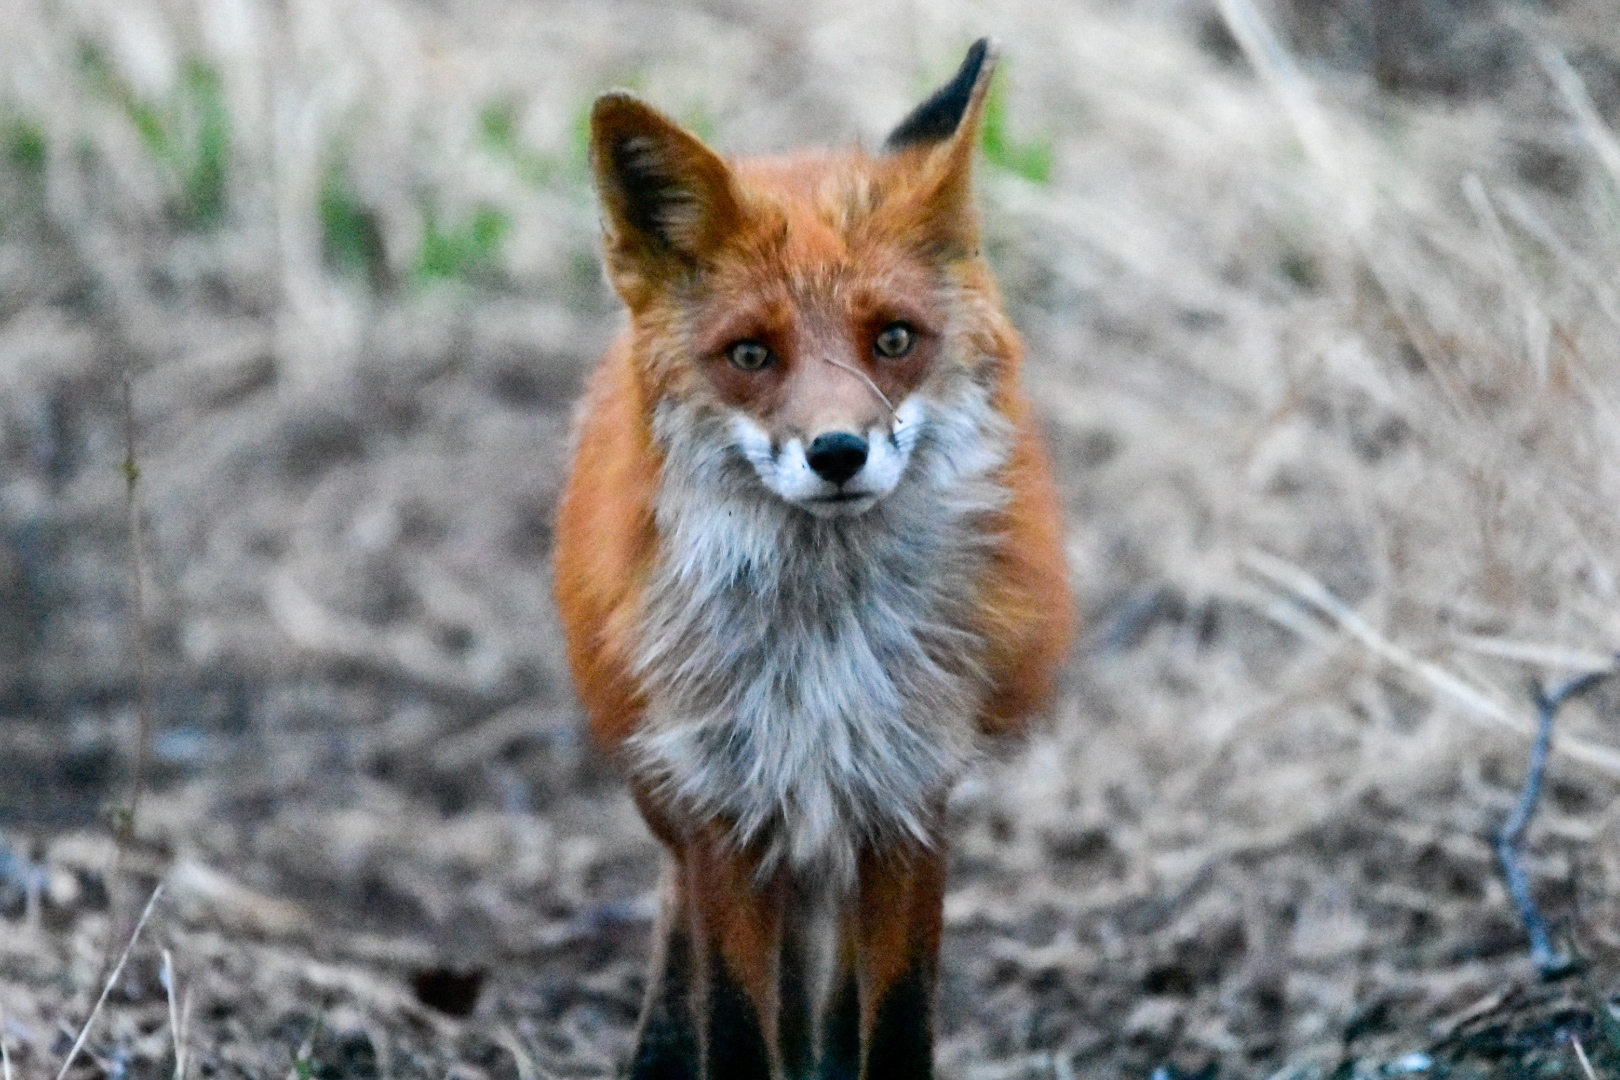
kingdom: Animalia
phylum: Chordata
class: Mammalia
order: Carnivora
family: Canidae
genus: Vulpes
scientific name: Vulpes vulpes
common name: Red fox
